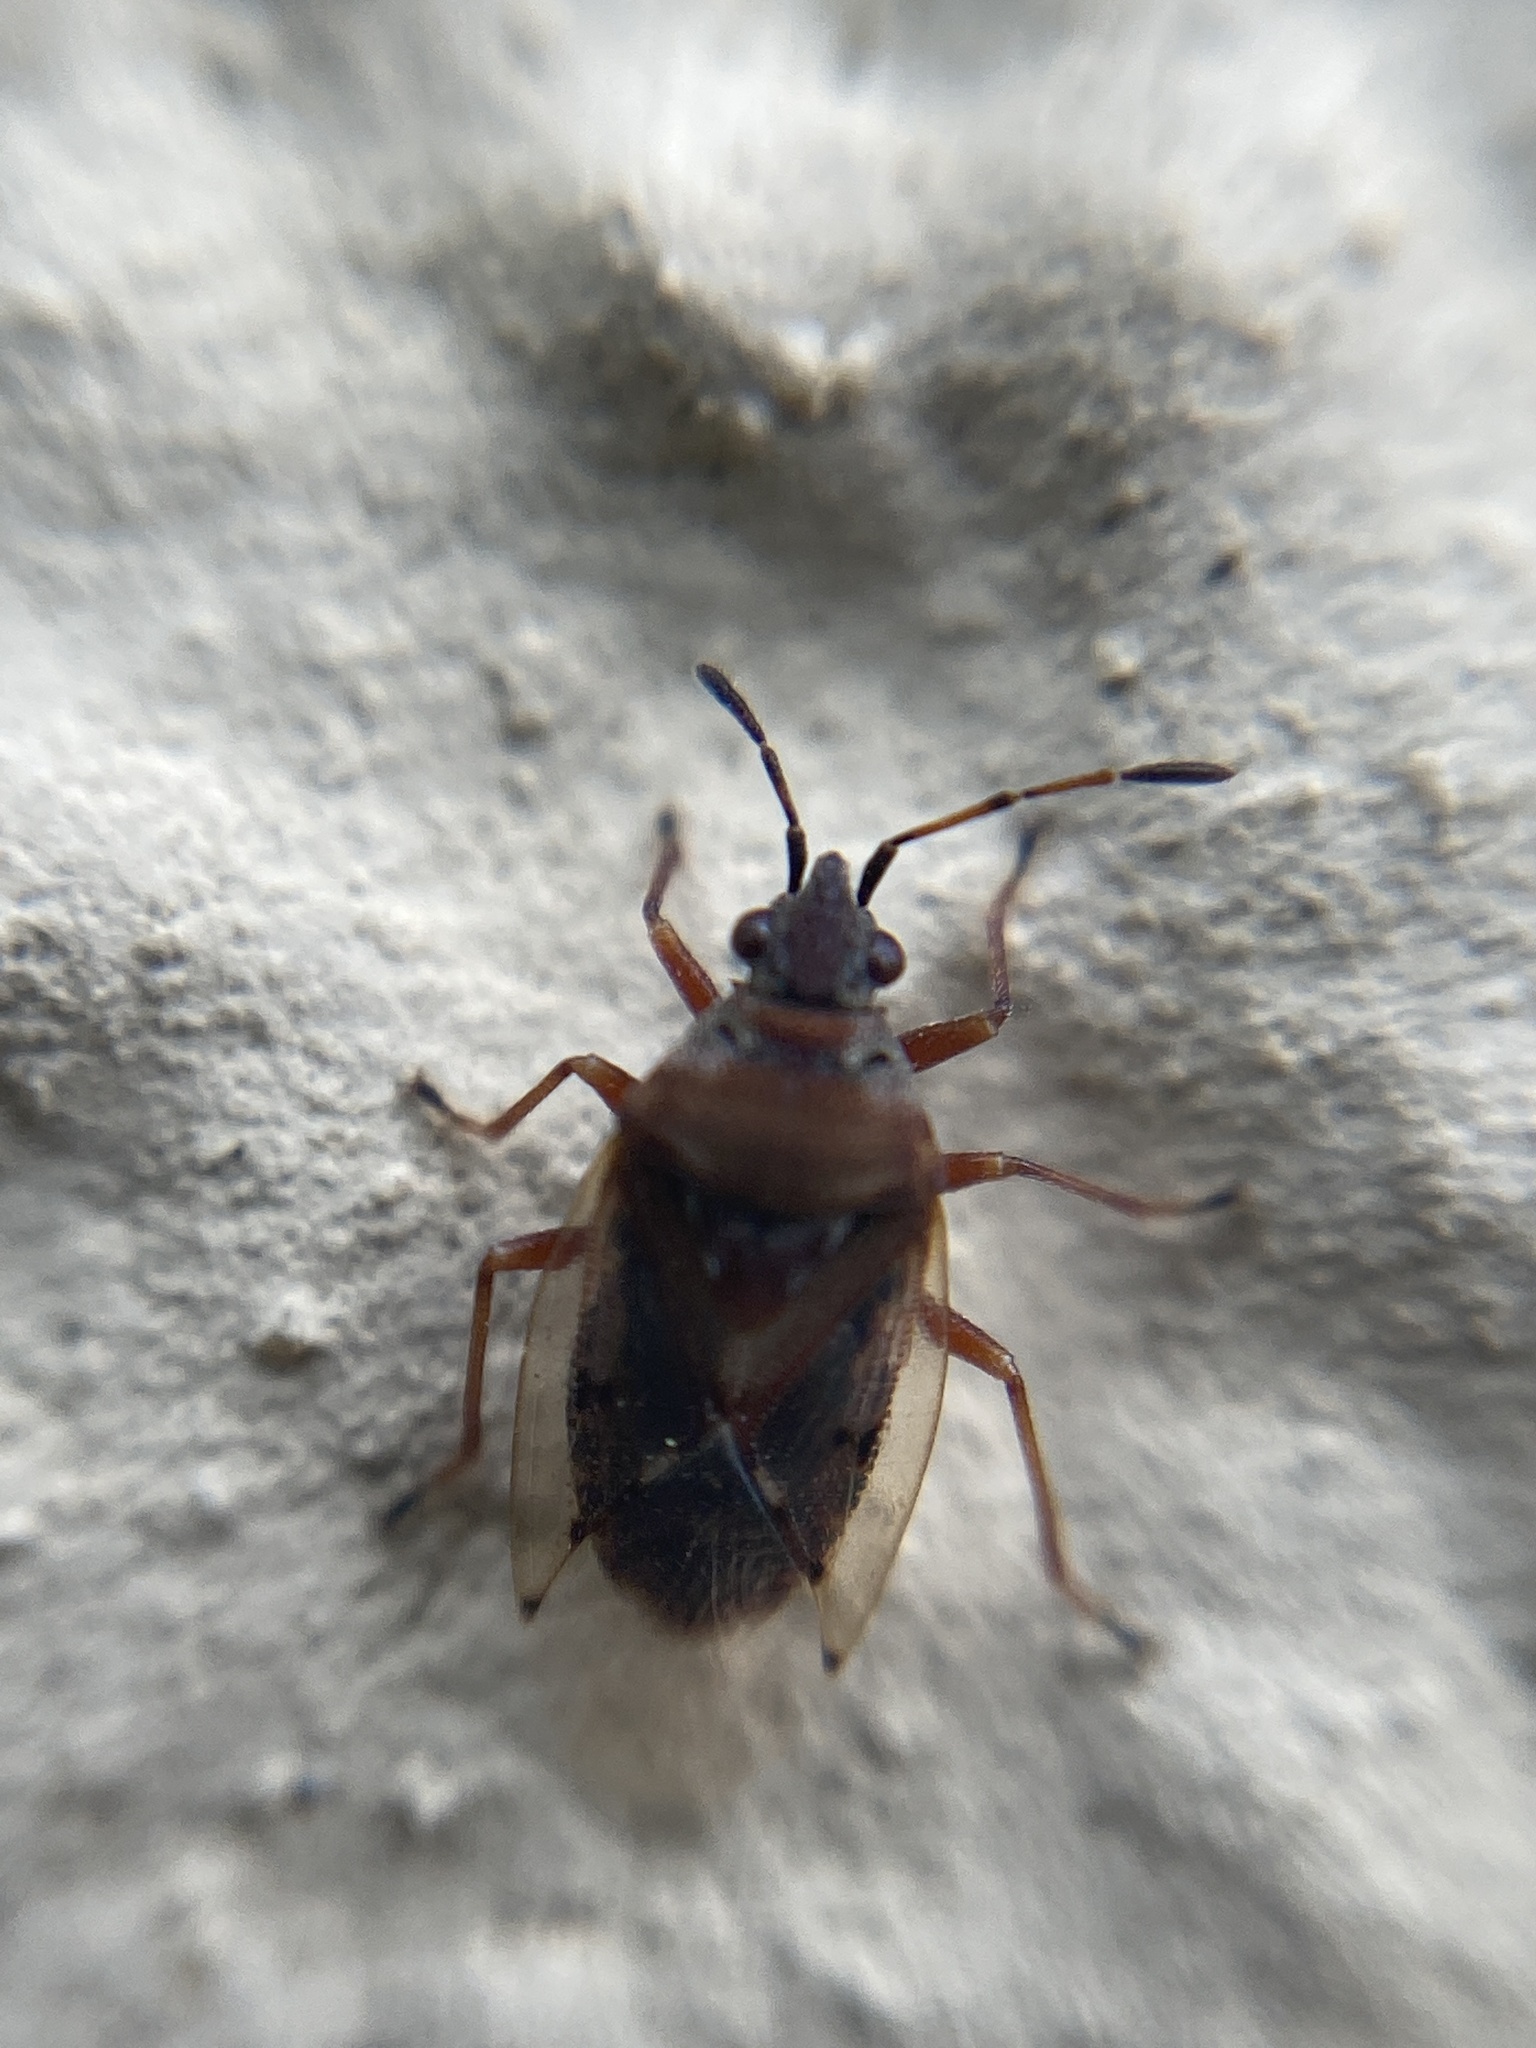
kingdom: Animalia
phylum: Arthropoda
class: Insecta
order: Hemiptera
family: Lygaeidae
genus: Kleidocerys
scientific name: Kleidocerys resedae
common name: Birch catkin bug
